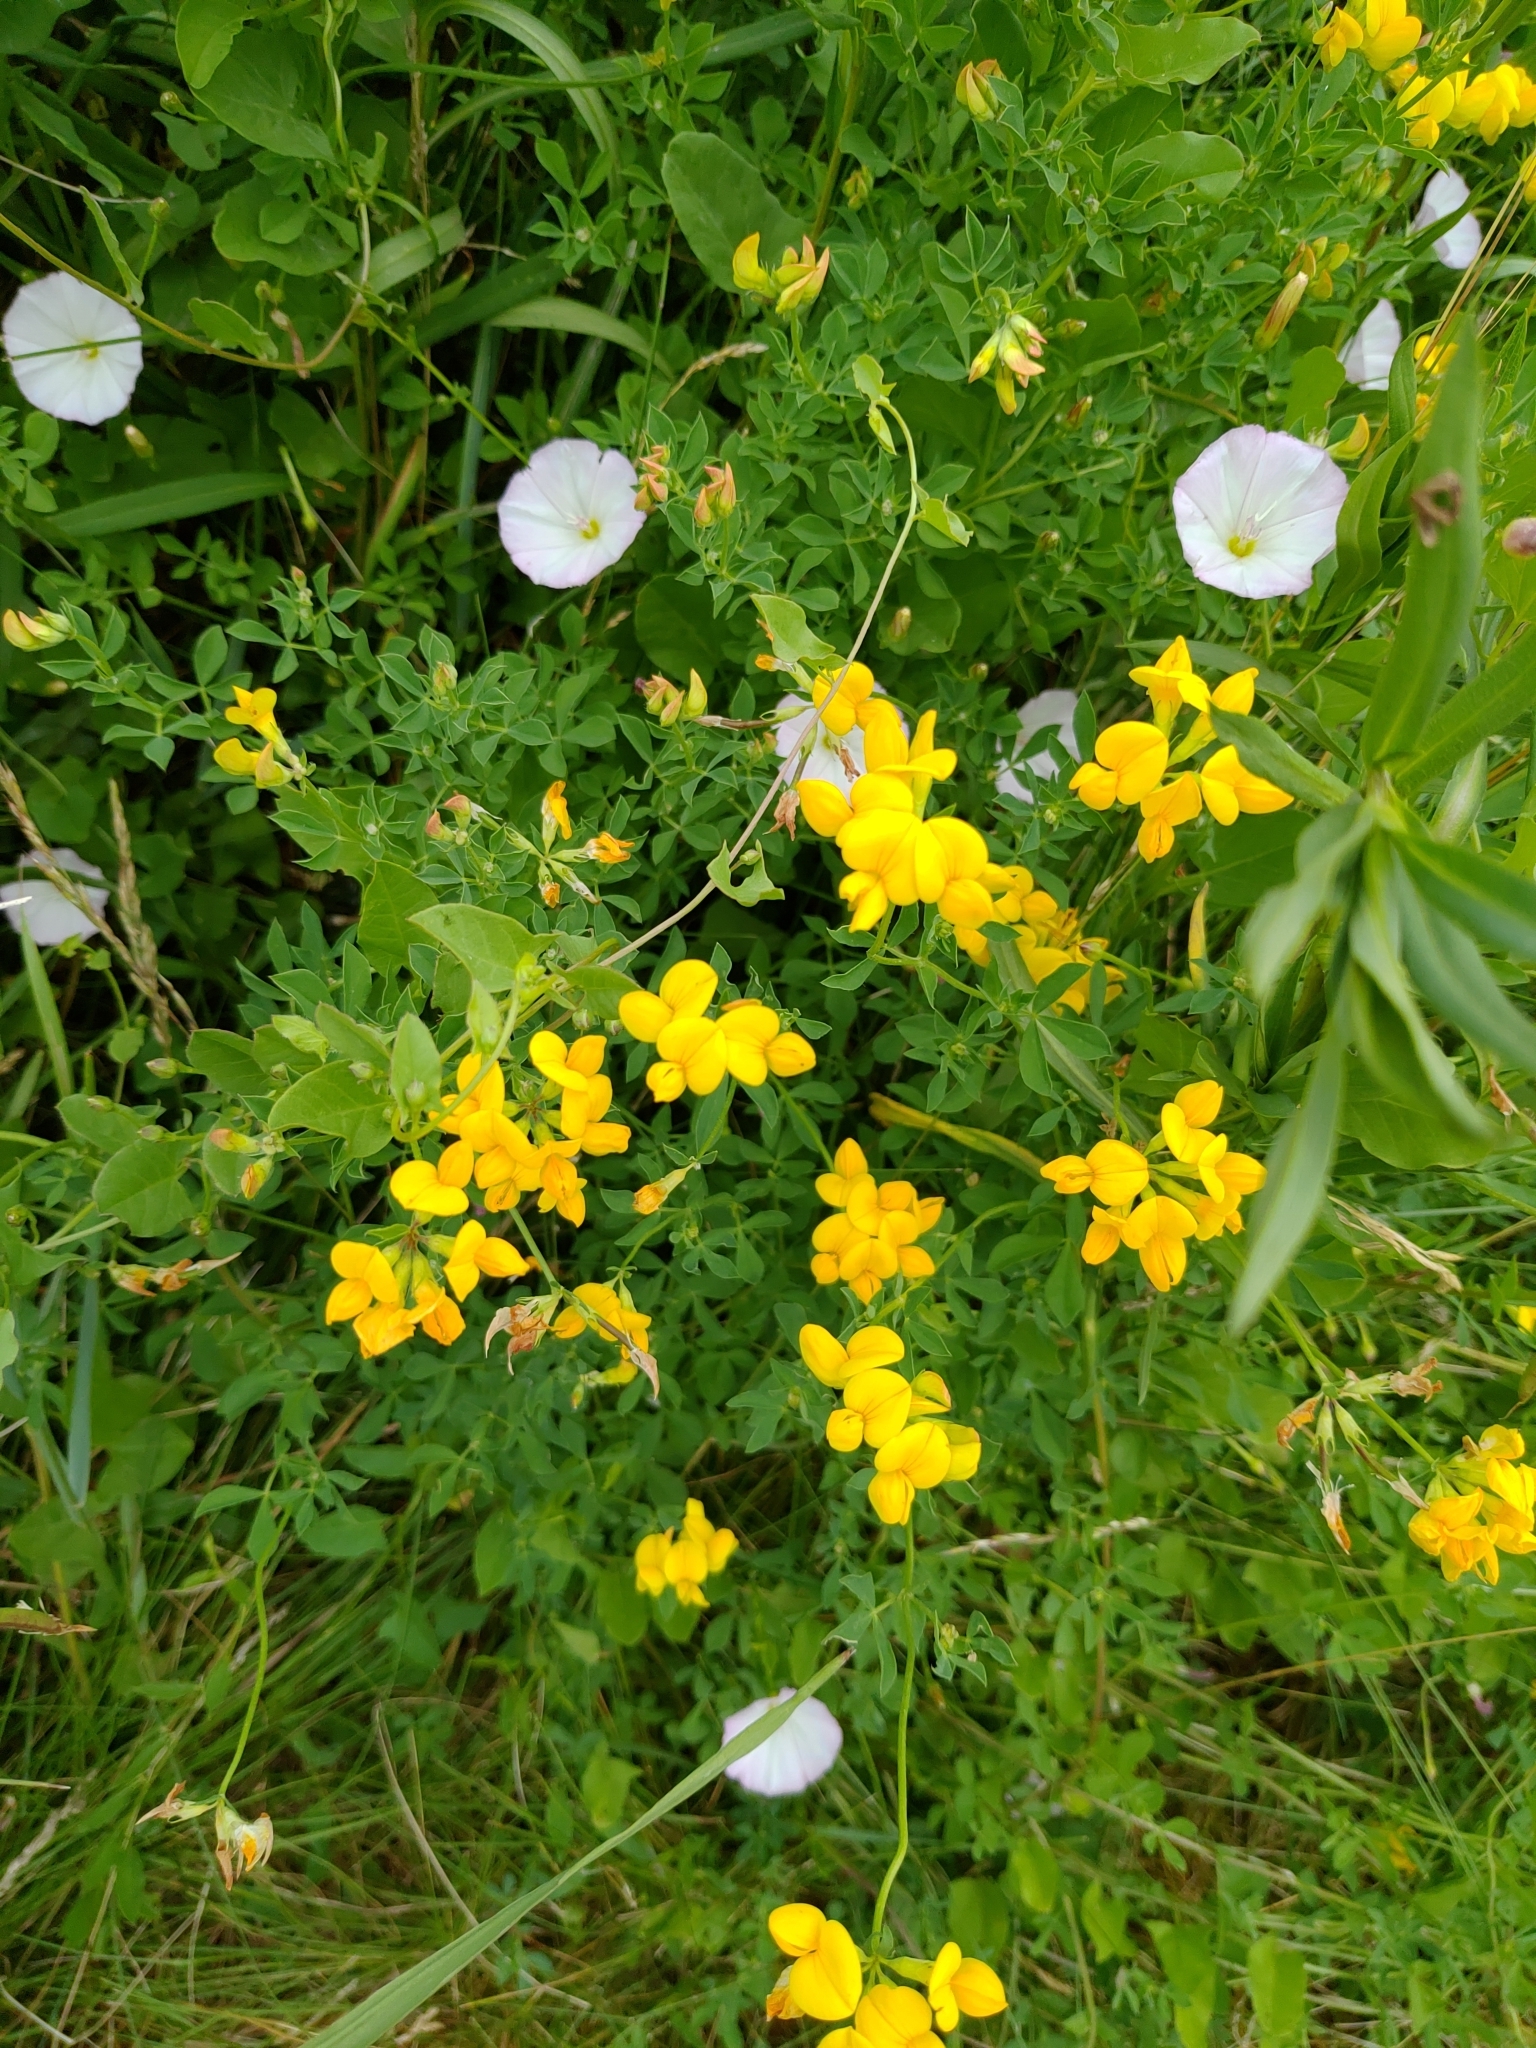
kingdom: Plantae
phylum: Tracheophyta
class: Magnoliopsida
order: Fabales
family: Fabaceae
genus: Lotus
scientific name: Lotus corniculatus
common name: Common bird's-foot-trefoil
